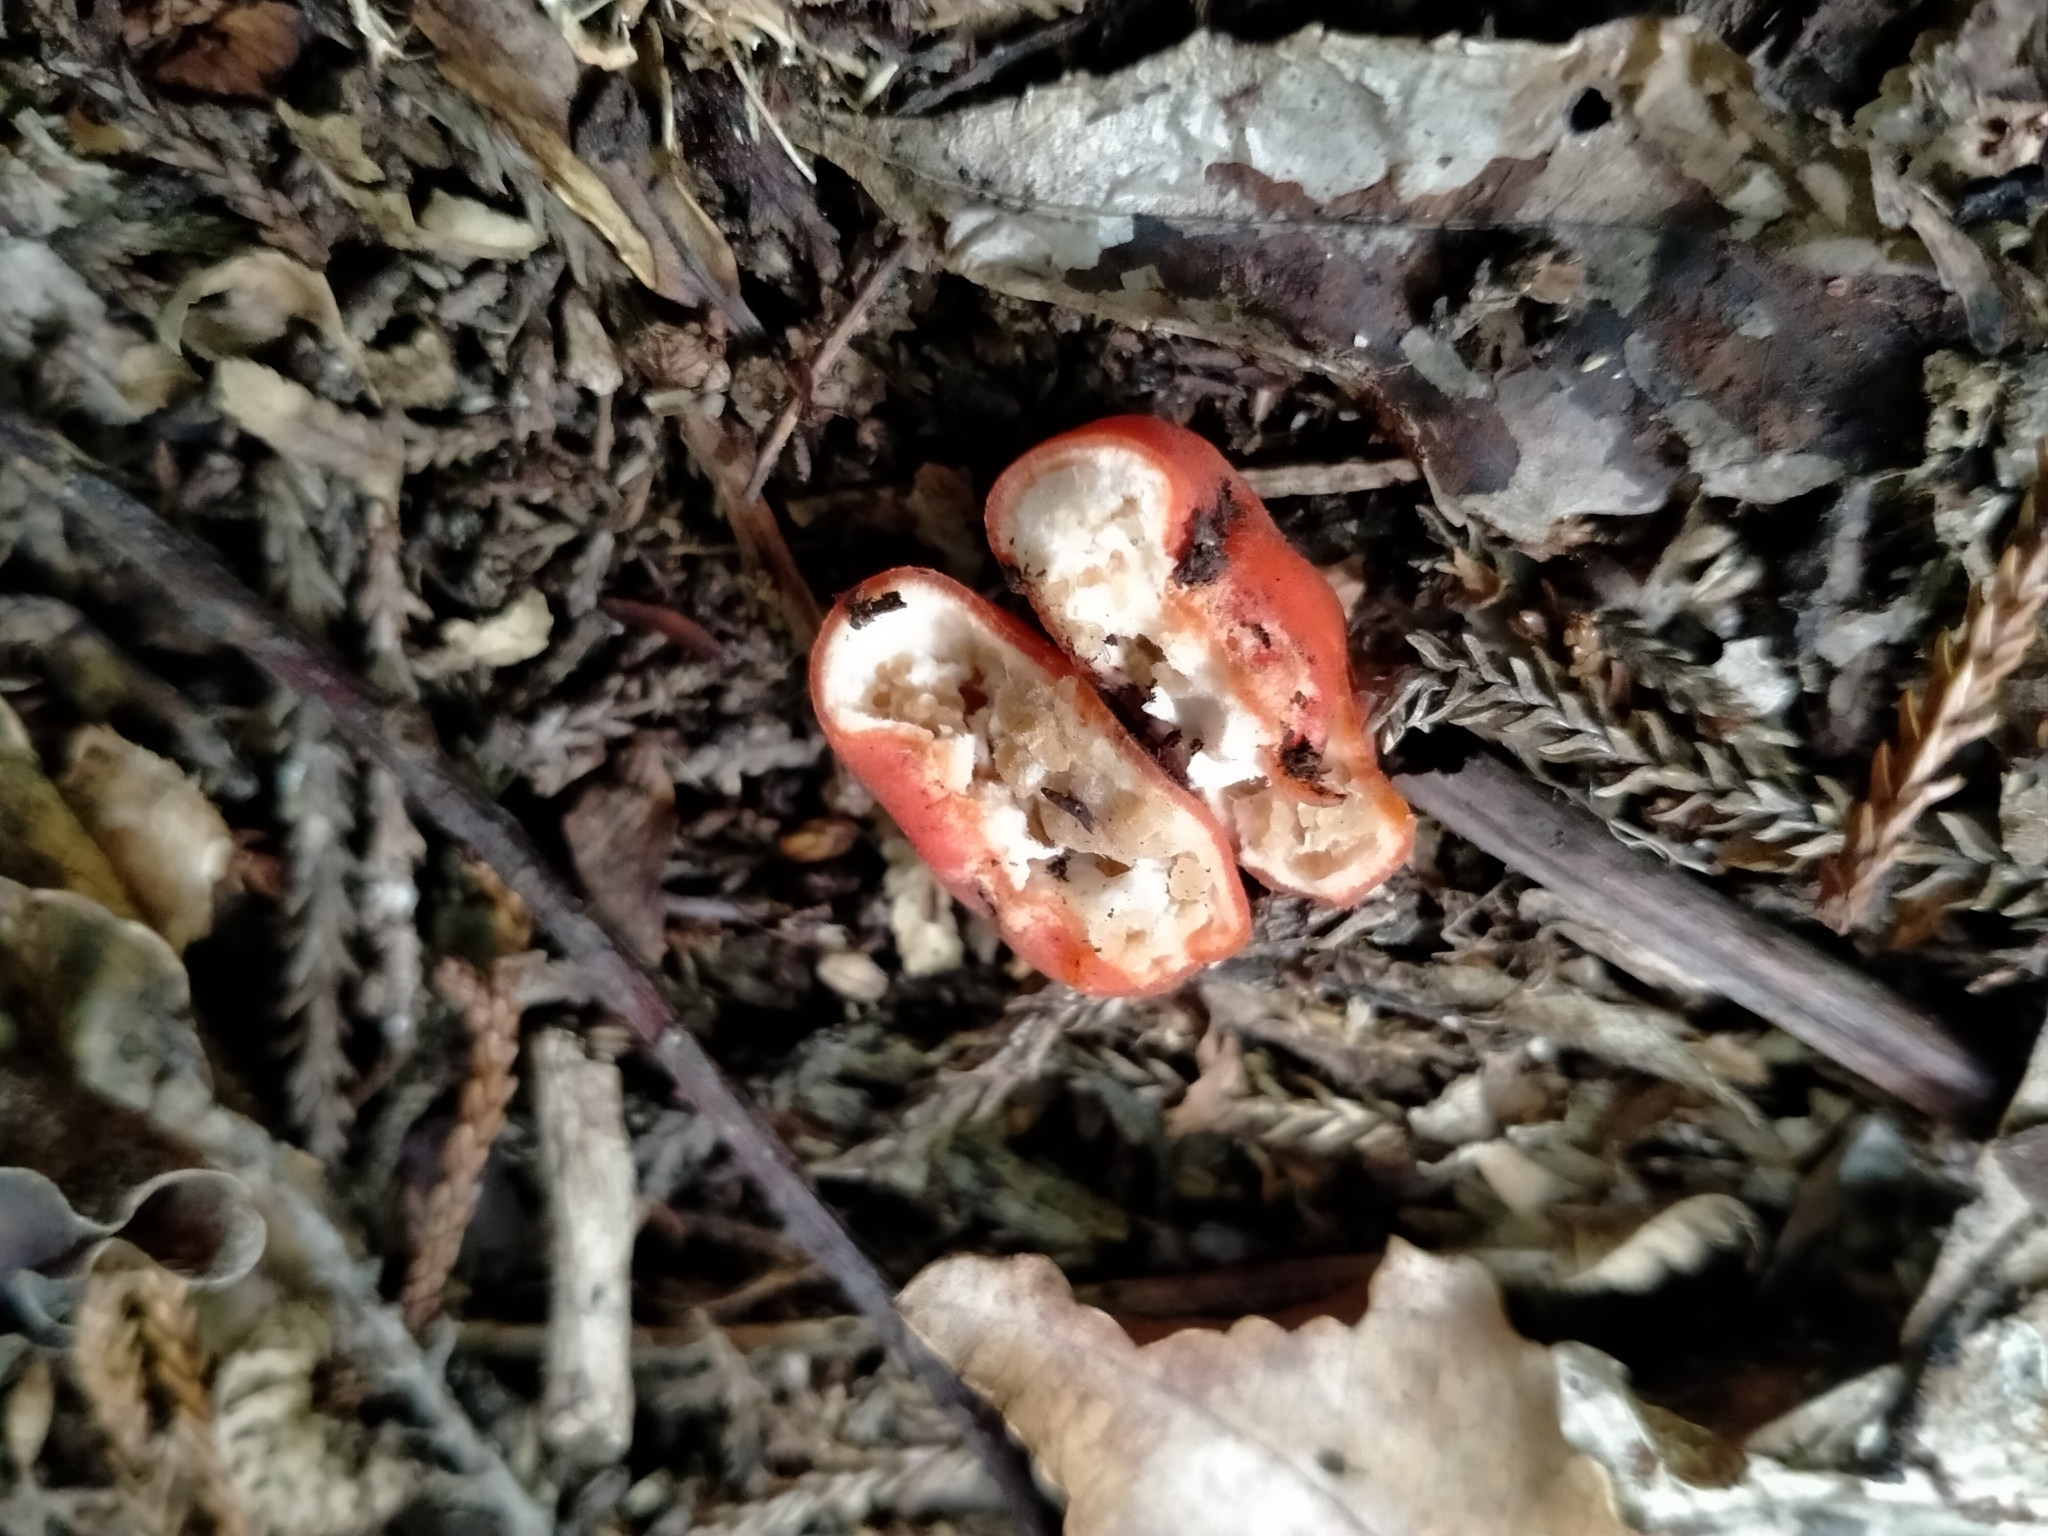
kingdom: Fungi
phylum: Ascomycota
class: Pezizomycetes
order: Pezizales
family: Pyronemataceae
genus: Paurocotylis
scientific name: Paurocotylis pila
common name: Scarlet berry truffle
